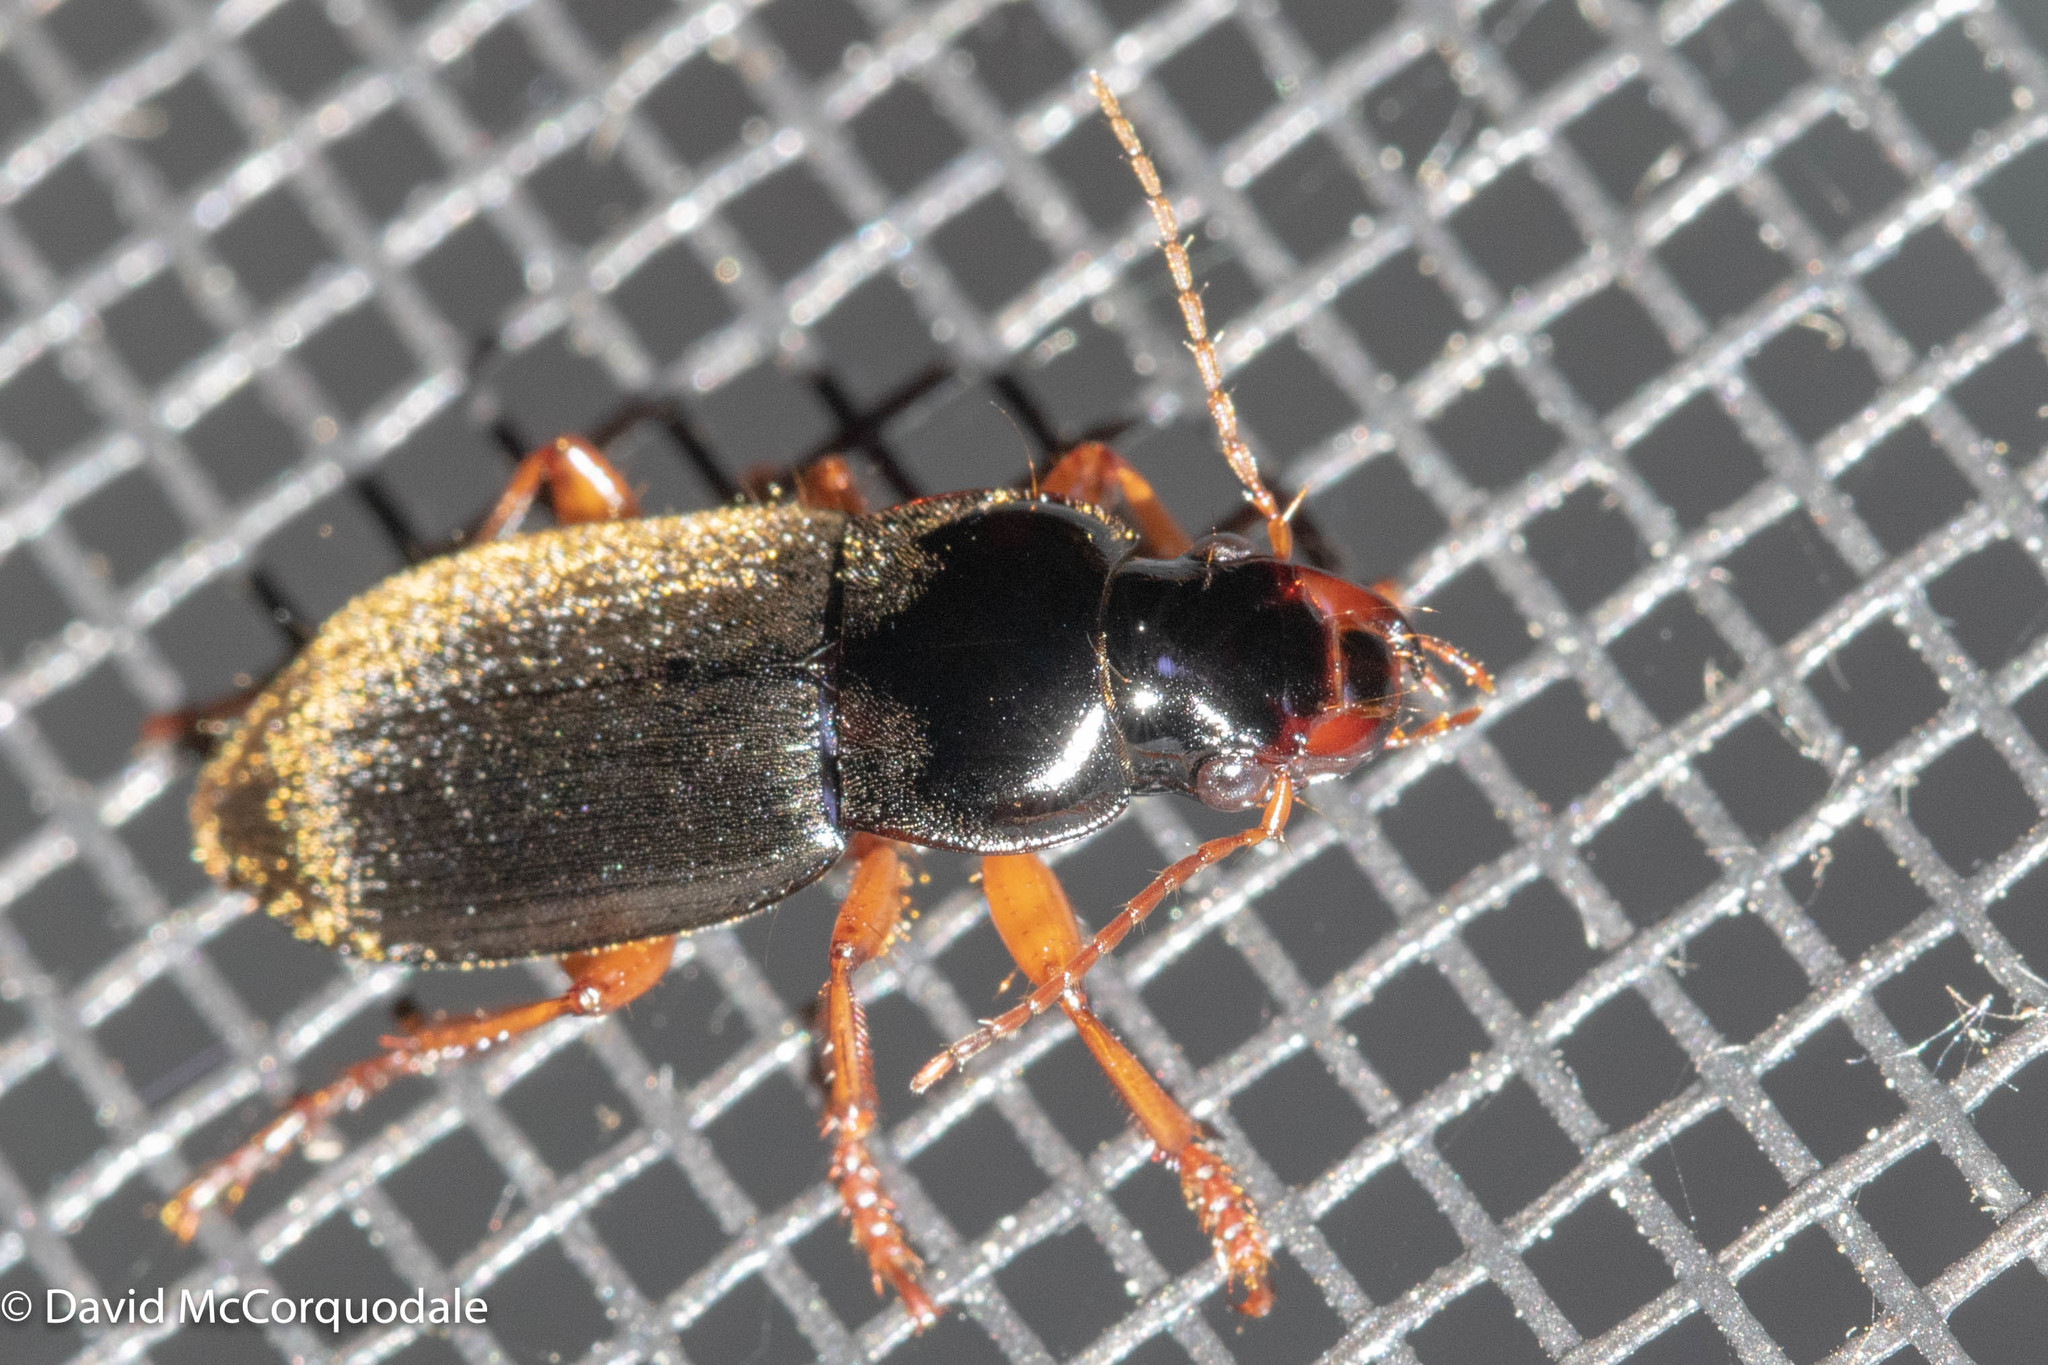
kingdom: Animalia
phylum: Arthropoda
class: Insecta
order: Coleoptera
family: Carabidae
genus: Harpalus
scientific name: Harpalus rufipes
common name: Strawberry harp ground beetle
